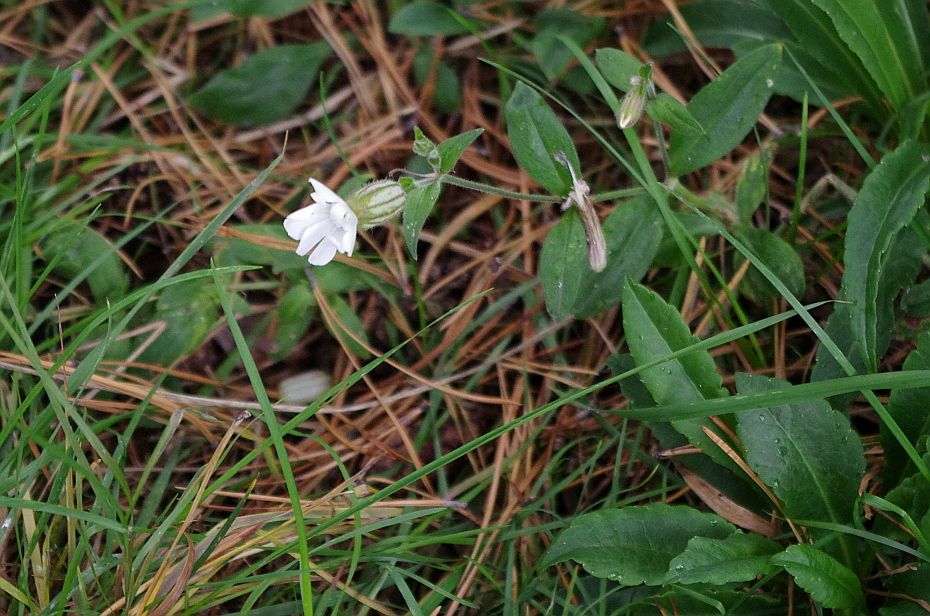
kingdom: Plantae
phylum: Tracheophyta
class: Magnoliopsida
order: Caryophyllales
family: Caryophyllaceae
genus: Silene
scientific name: Silene latifolia
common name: White campion
